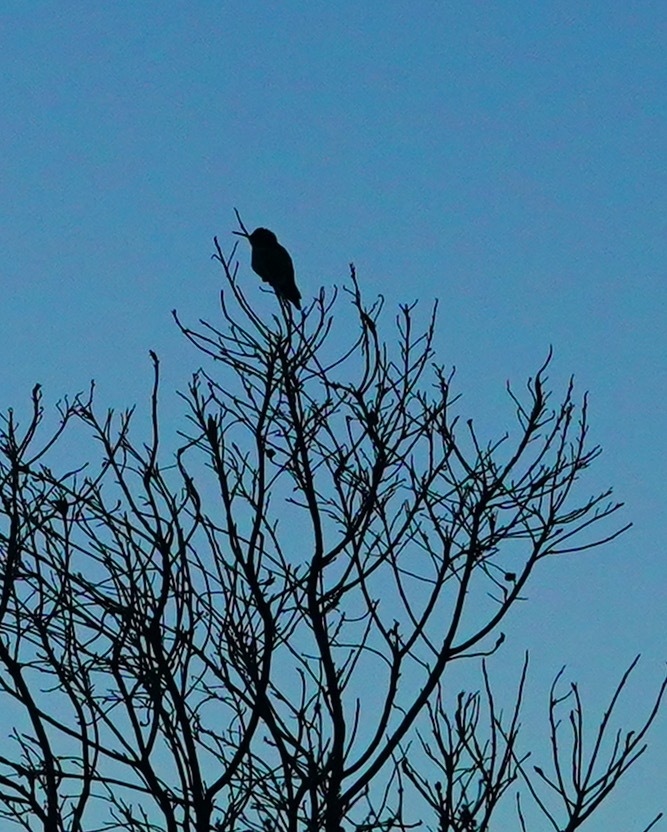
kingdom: Animalia
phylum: Chordata
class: Aves
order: Apodiformes
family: Trochilidae
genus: Calypte
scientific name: Calypte anna
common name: Anna's hummingbird
